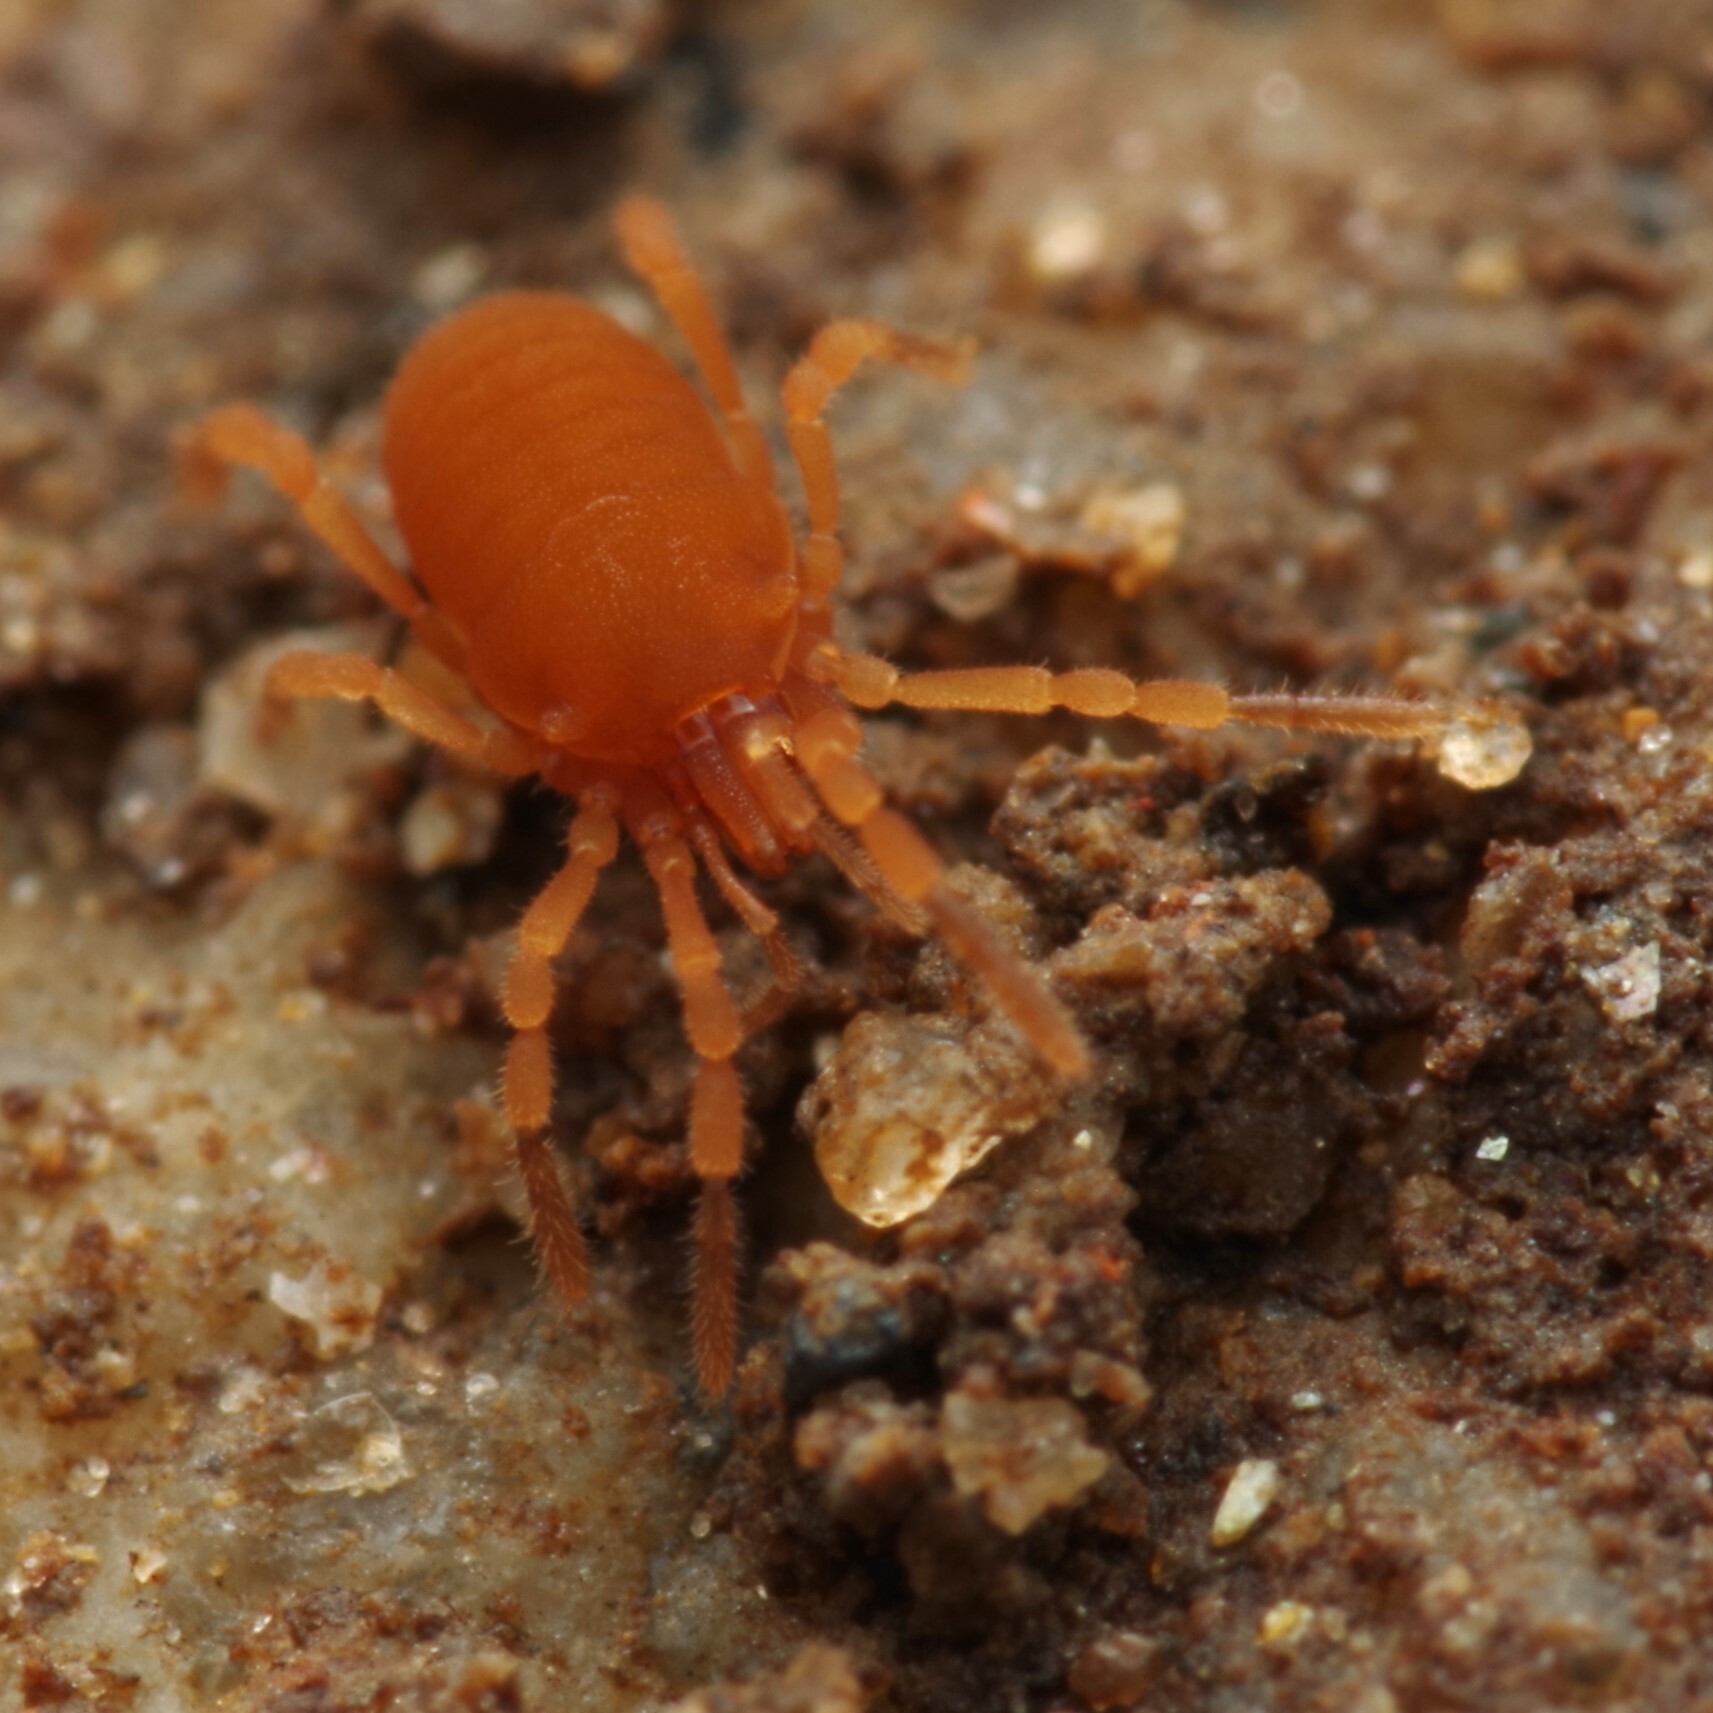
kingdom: Animalia
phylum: Arthropoda
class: Arachnida
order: Opiliones
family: Sironidae
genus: Siro
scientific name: Siro rubens
